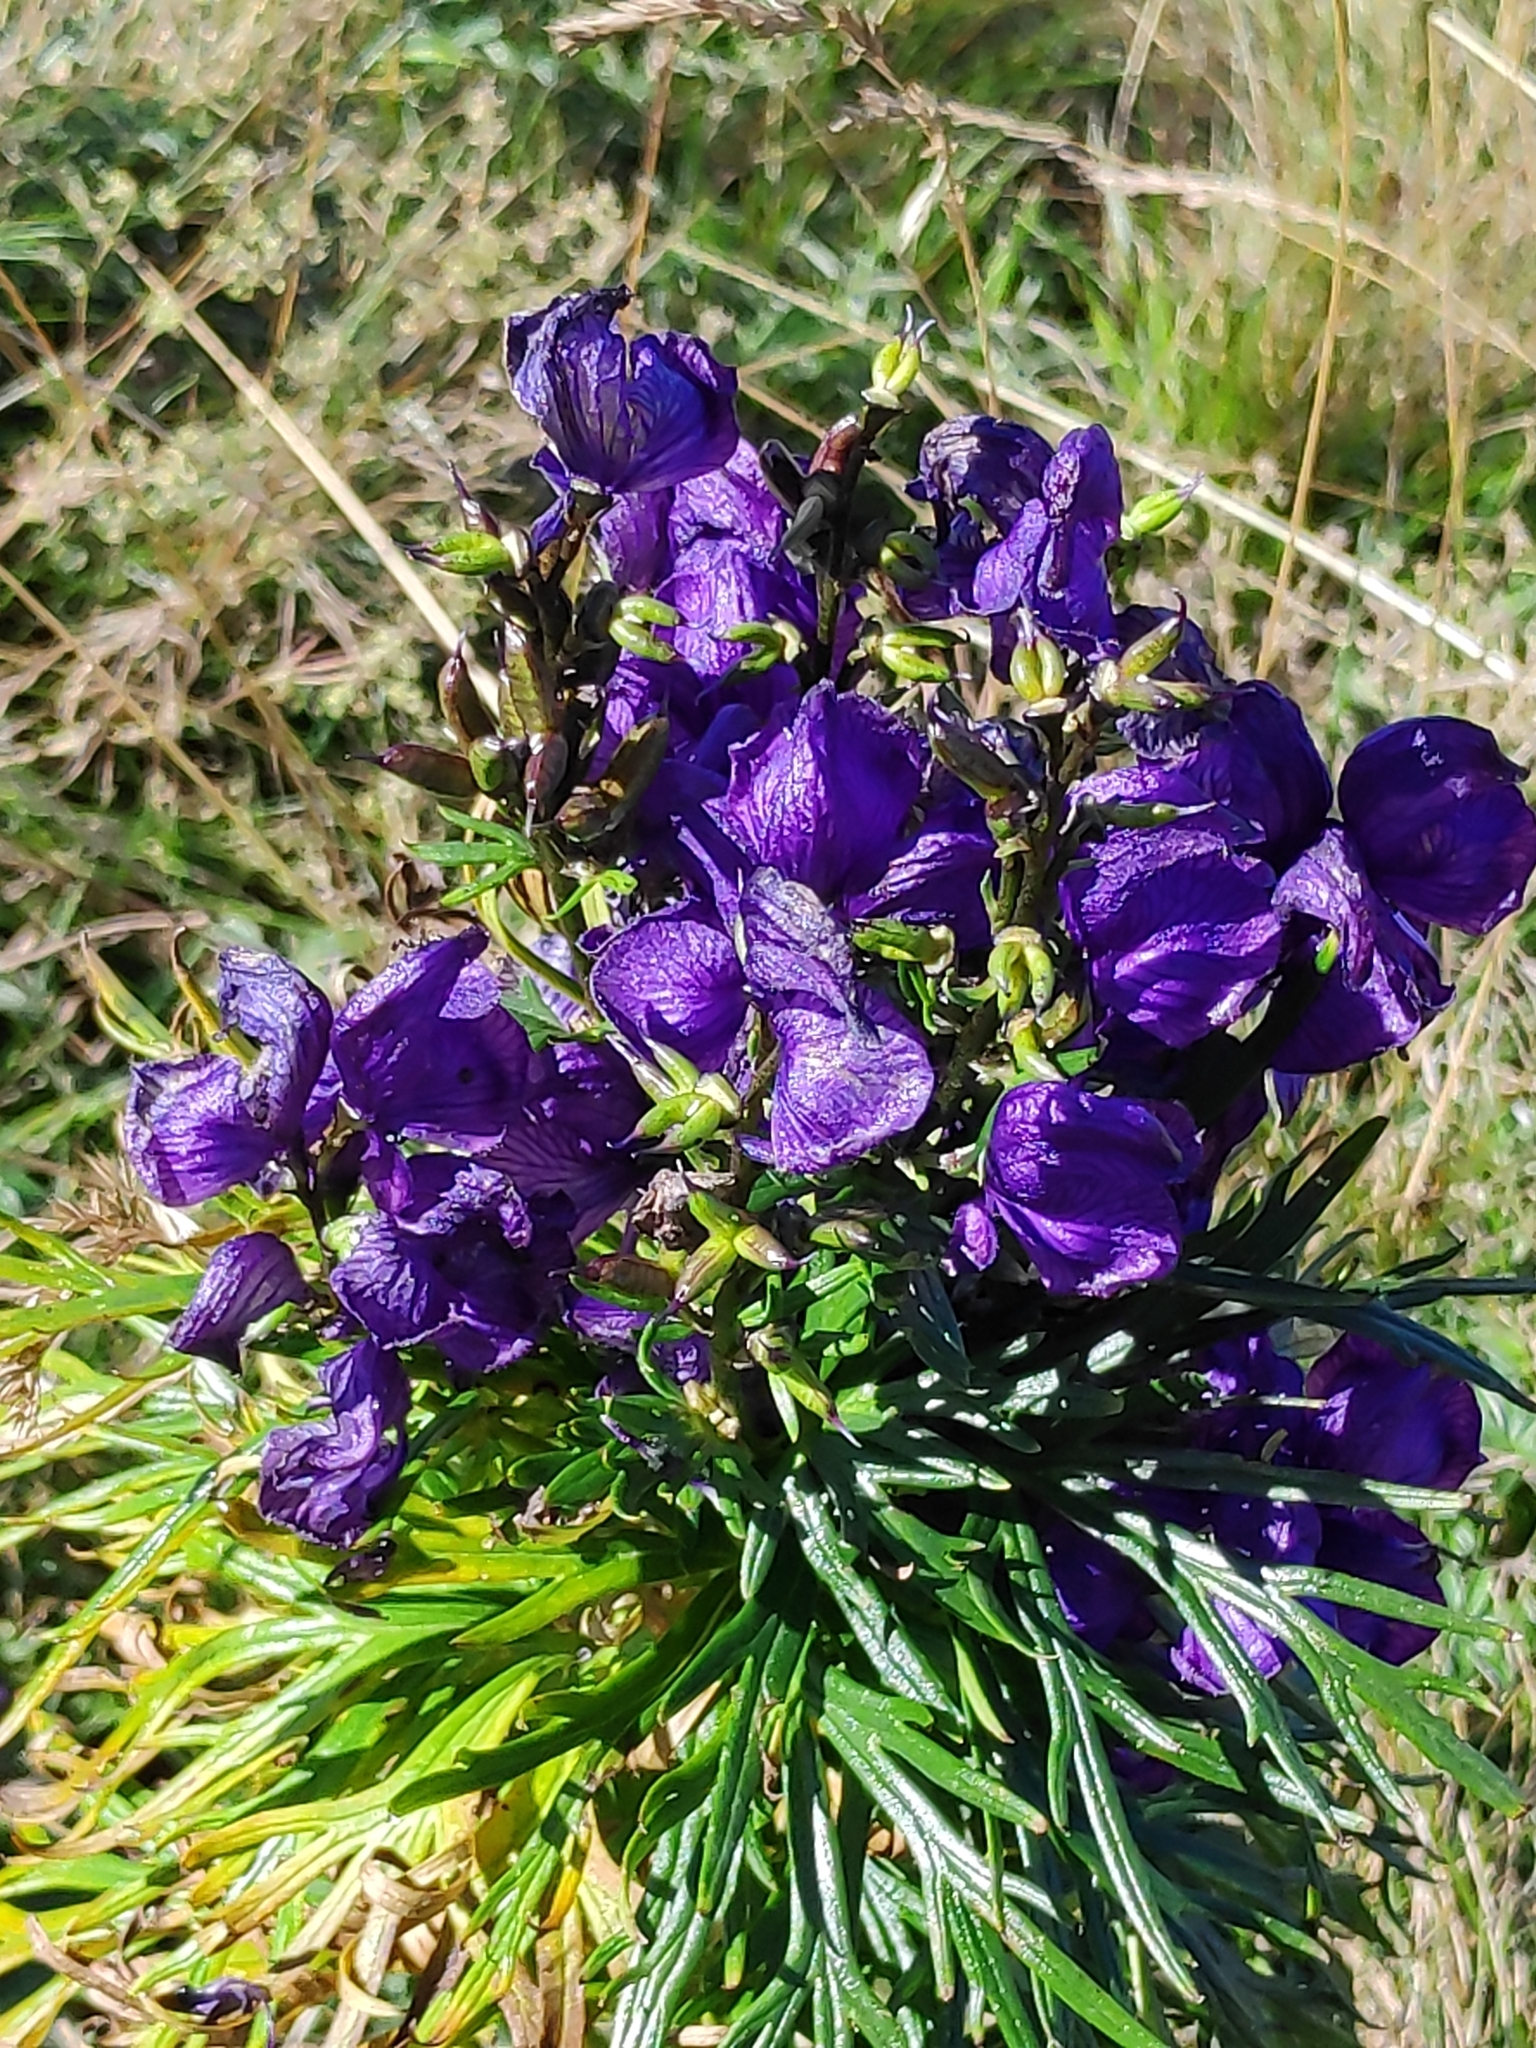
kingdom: Plantae
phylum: Tracheophyta
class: Magnoliopsida
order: Ranunculales
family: Ranunculaceae
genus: Aconitum
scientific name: Aconitum tauricum
